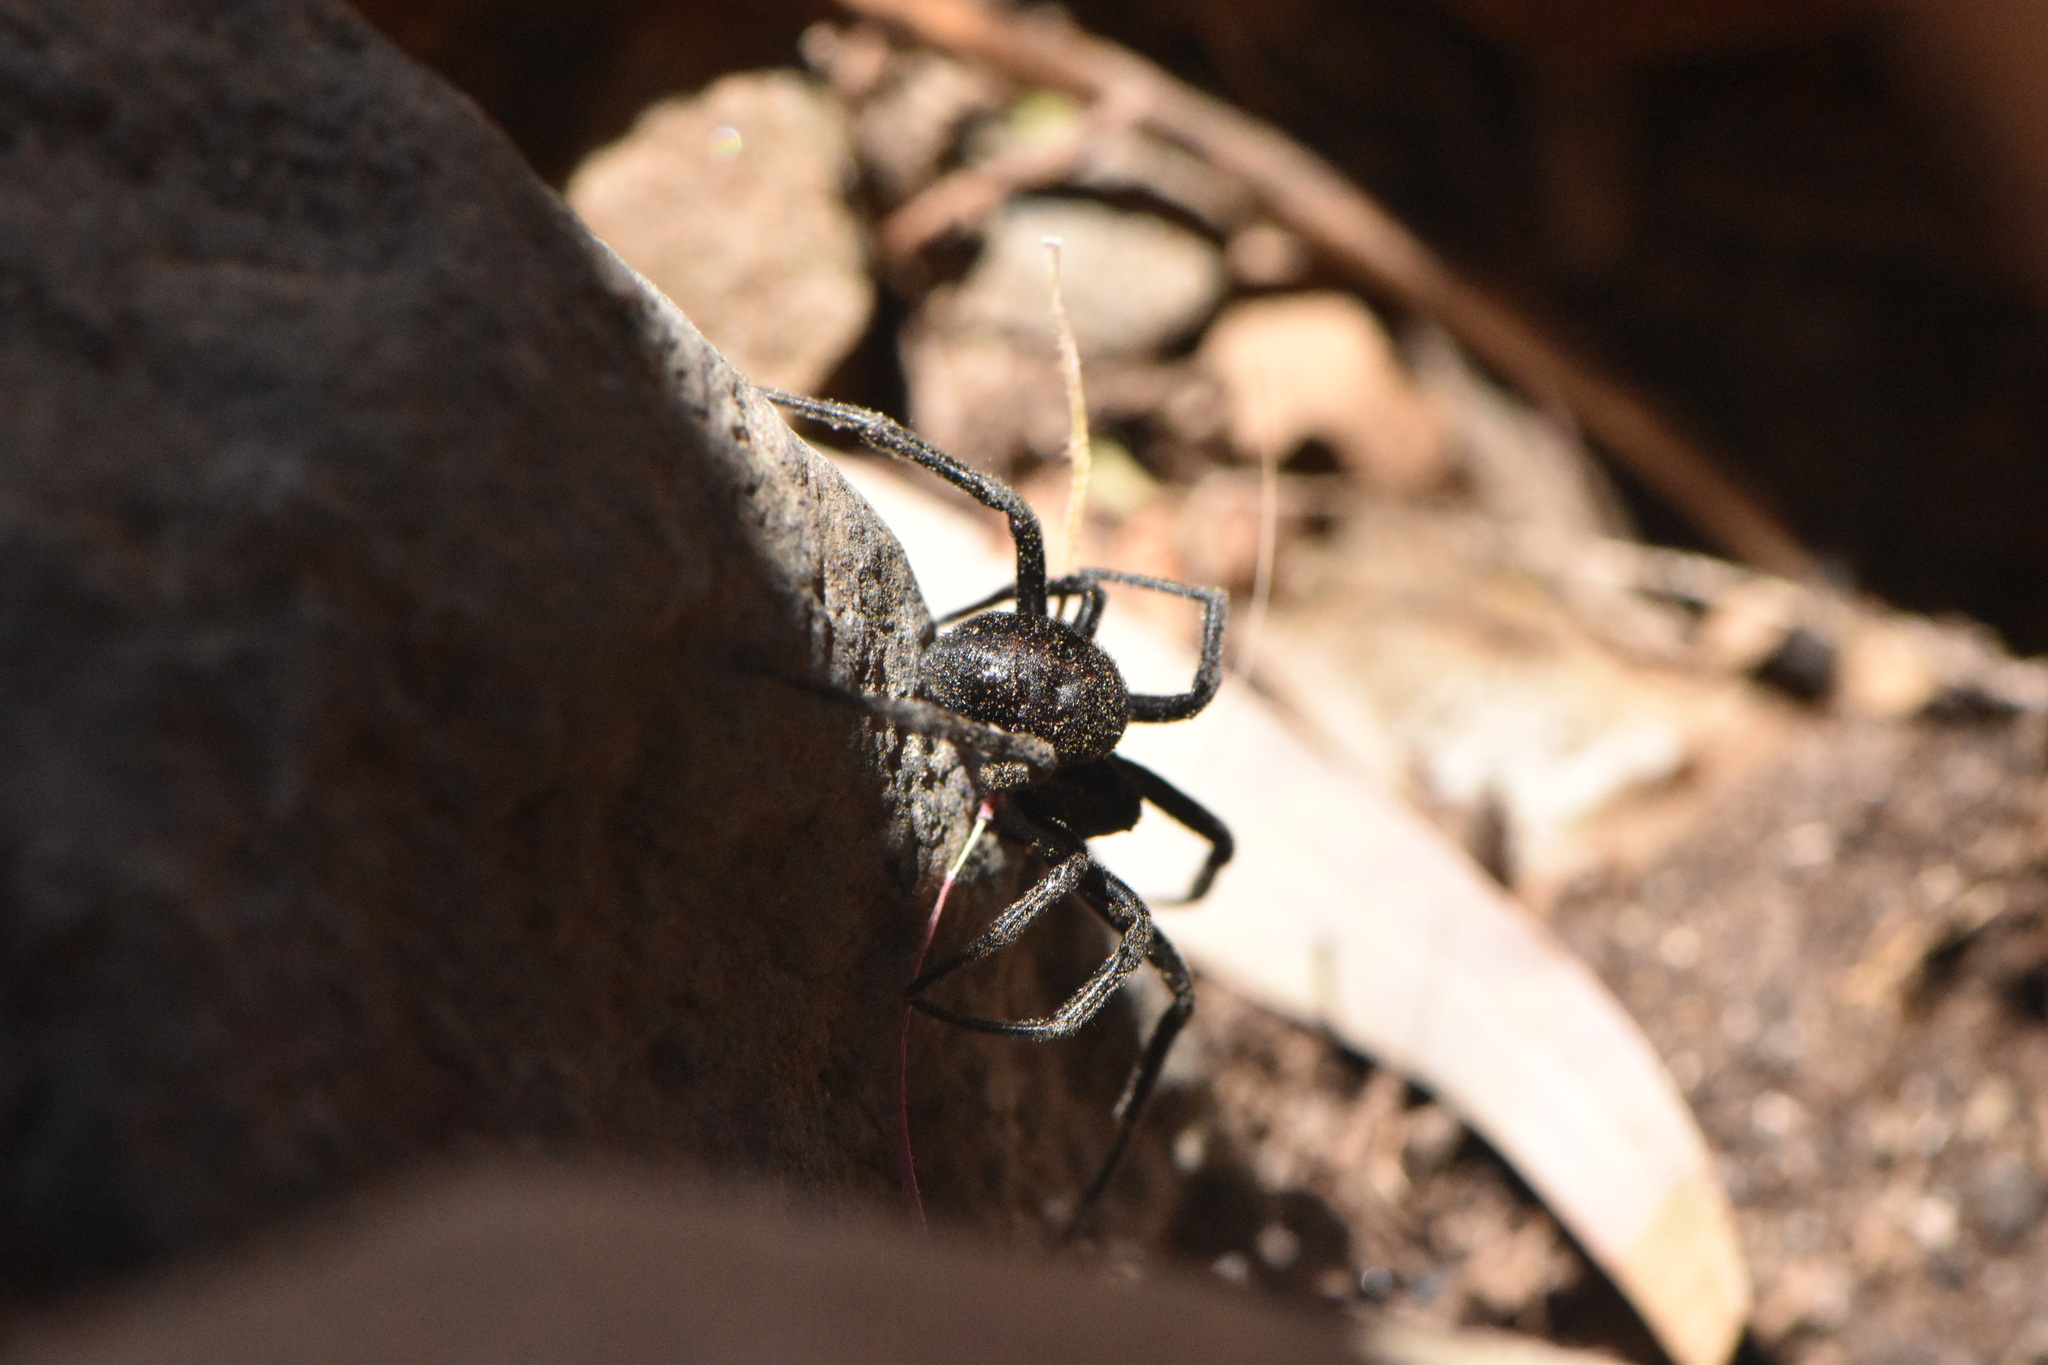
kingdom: Animalia
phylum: Arthropoda
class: Arachnida
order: Araneae
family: Theridiidae
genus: Steatoda
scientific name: Steatoda paykulliana
